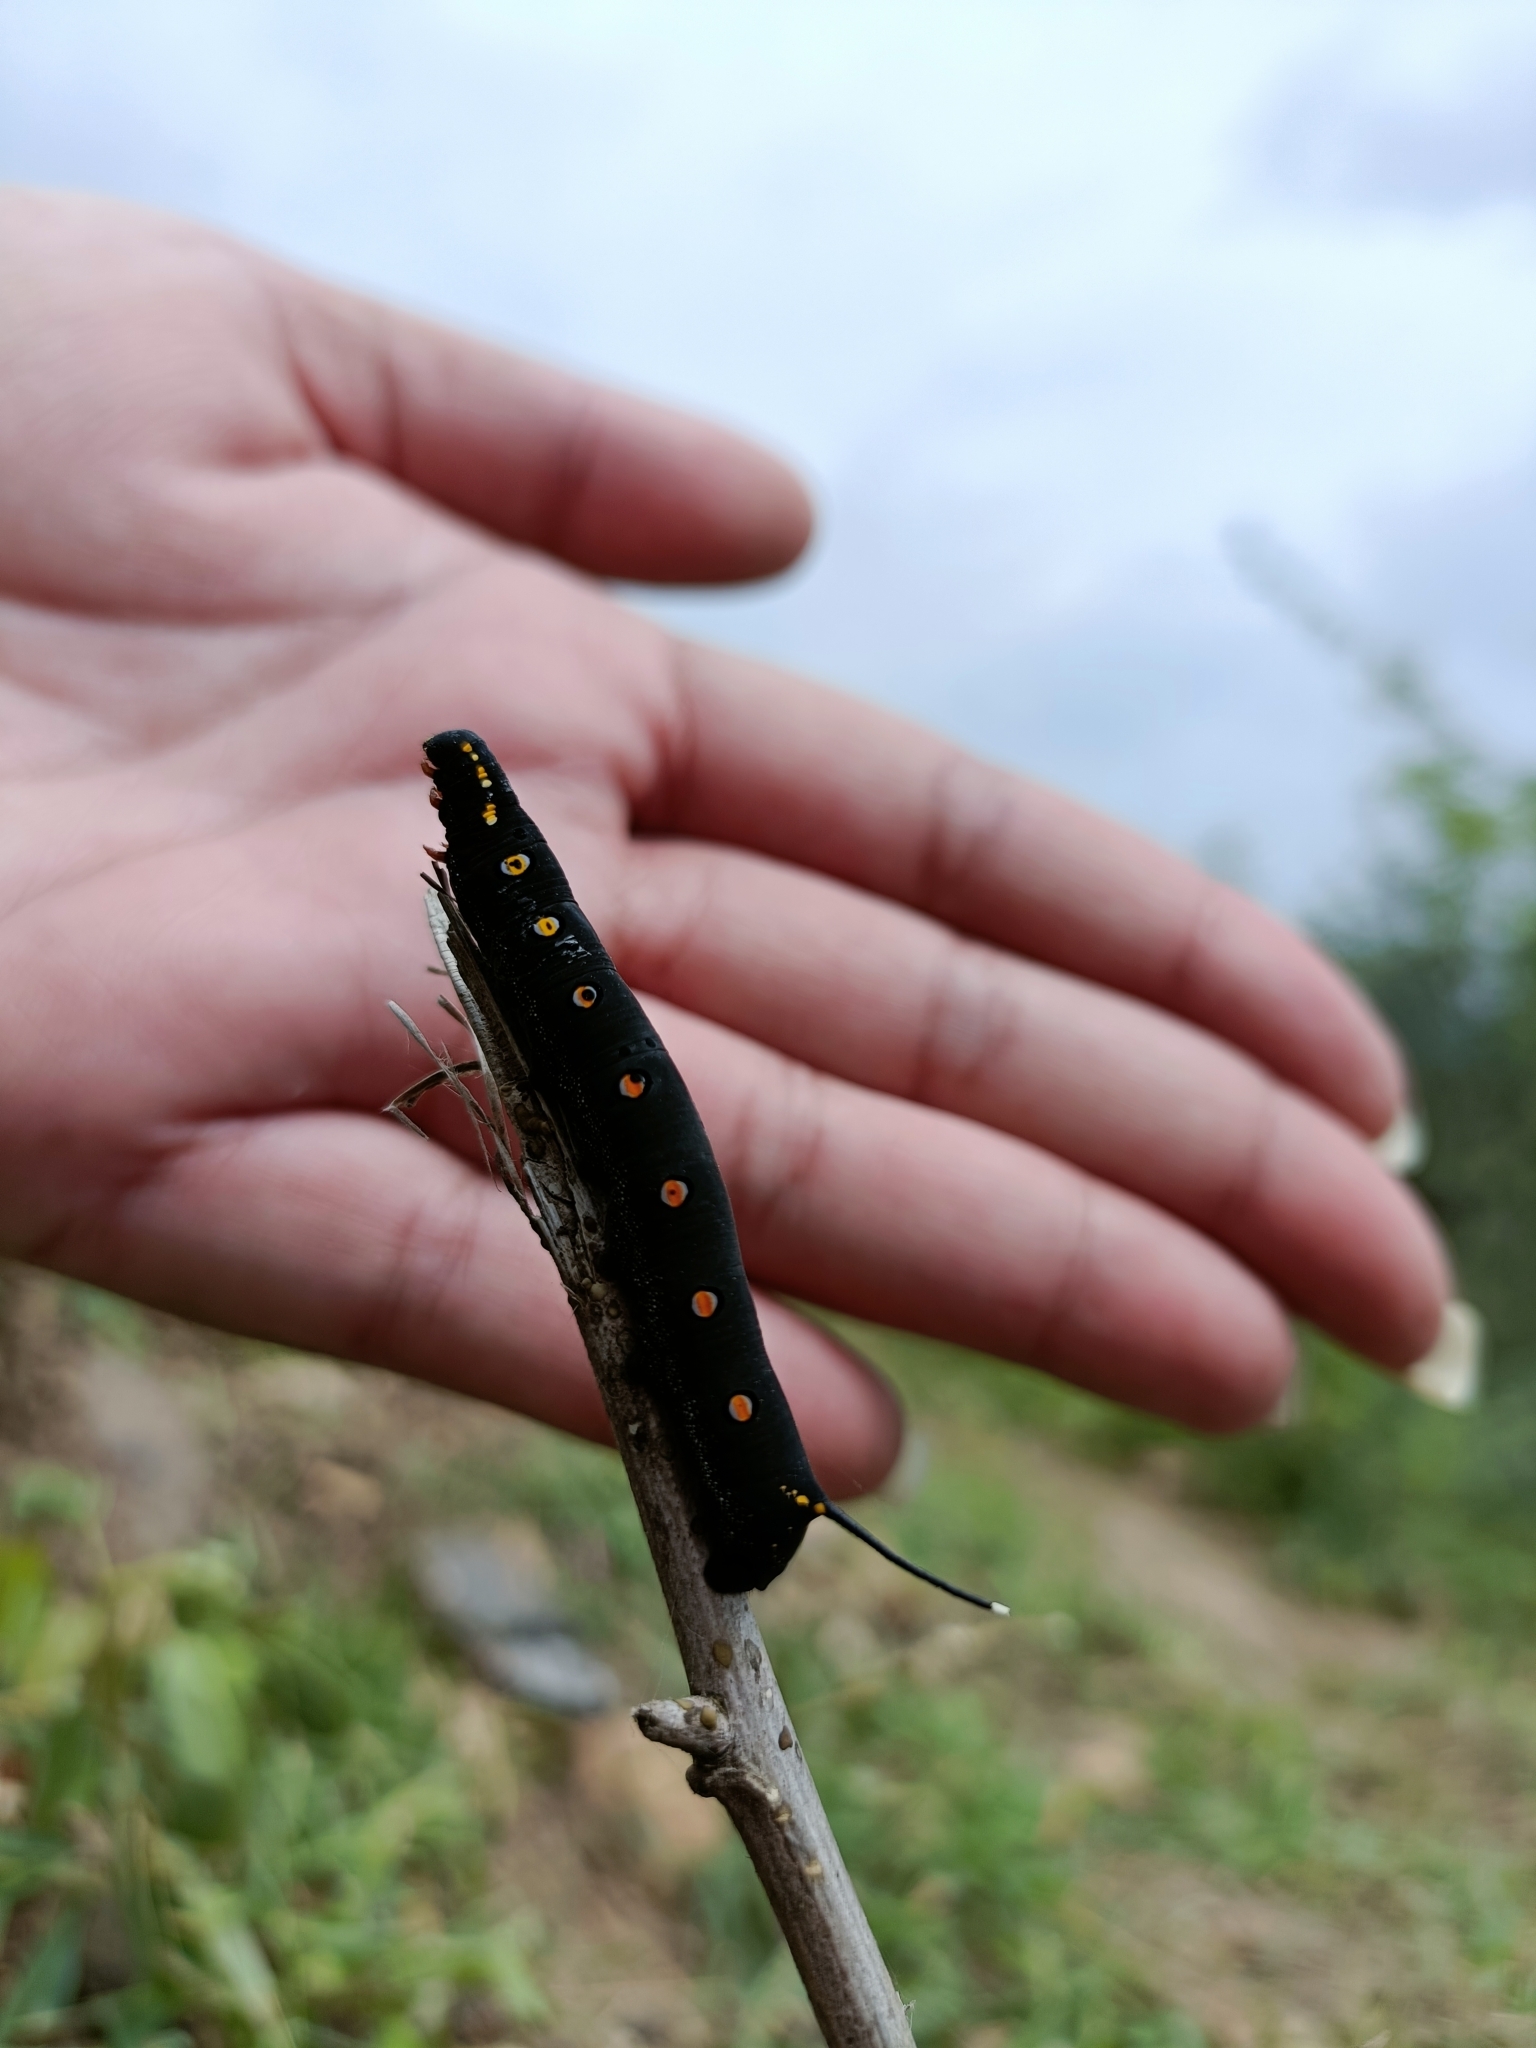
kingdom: Animalia
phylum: Arthropoda
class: Insecta
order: Lepidoptera
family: Sphingidae
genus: Theretra
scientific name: Theretra oldenlandiae
